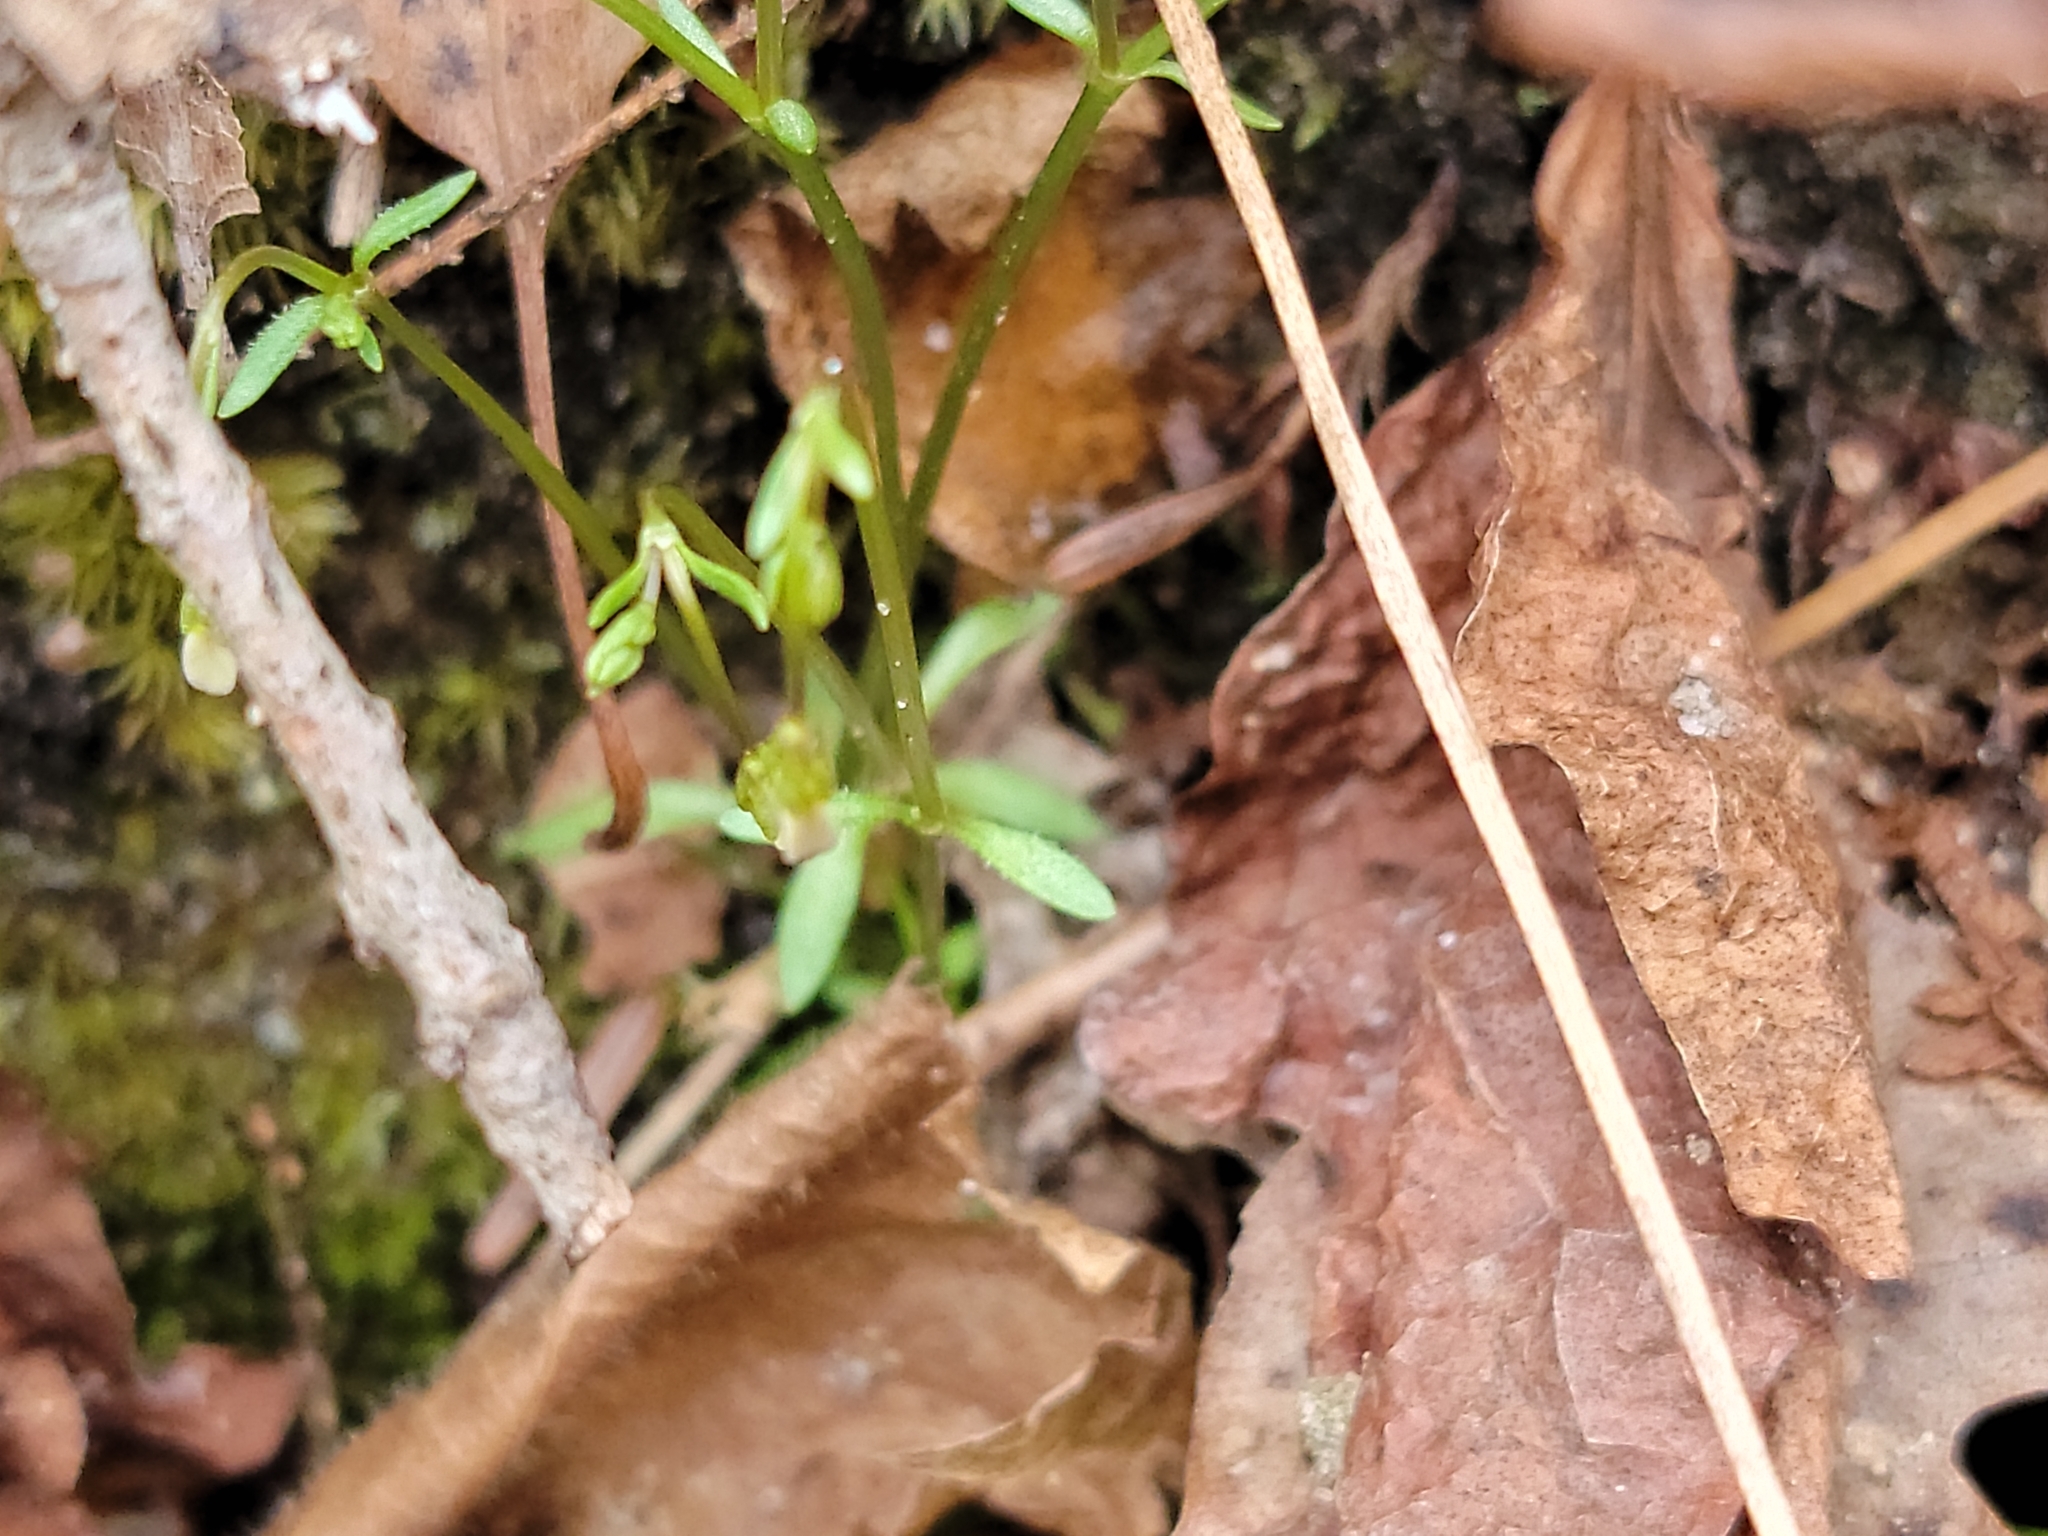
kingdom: Plantae
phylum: Tracheophyta
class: Magnoliopsida
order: Gentianales
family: Rubiaceae
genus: Houstonia
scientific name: Houstonia caerulea
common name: Bluets
